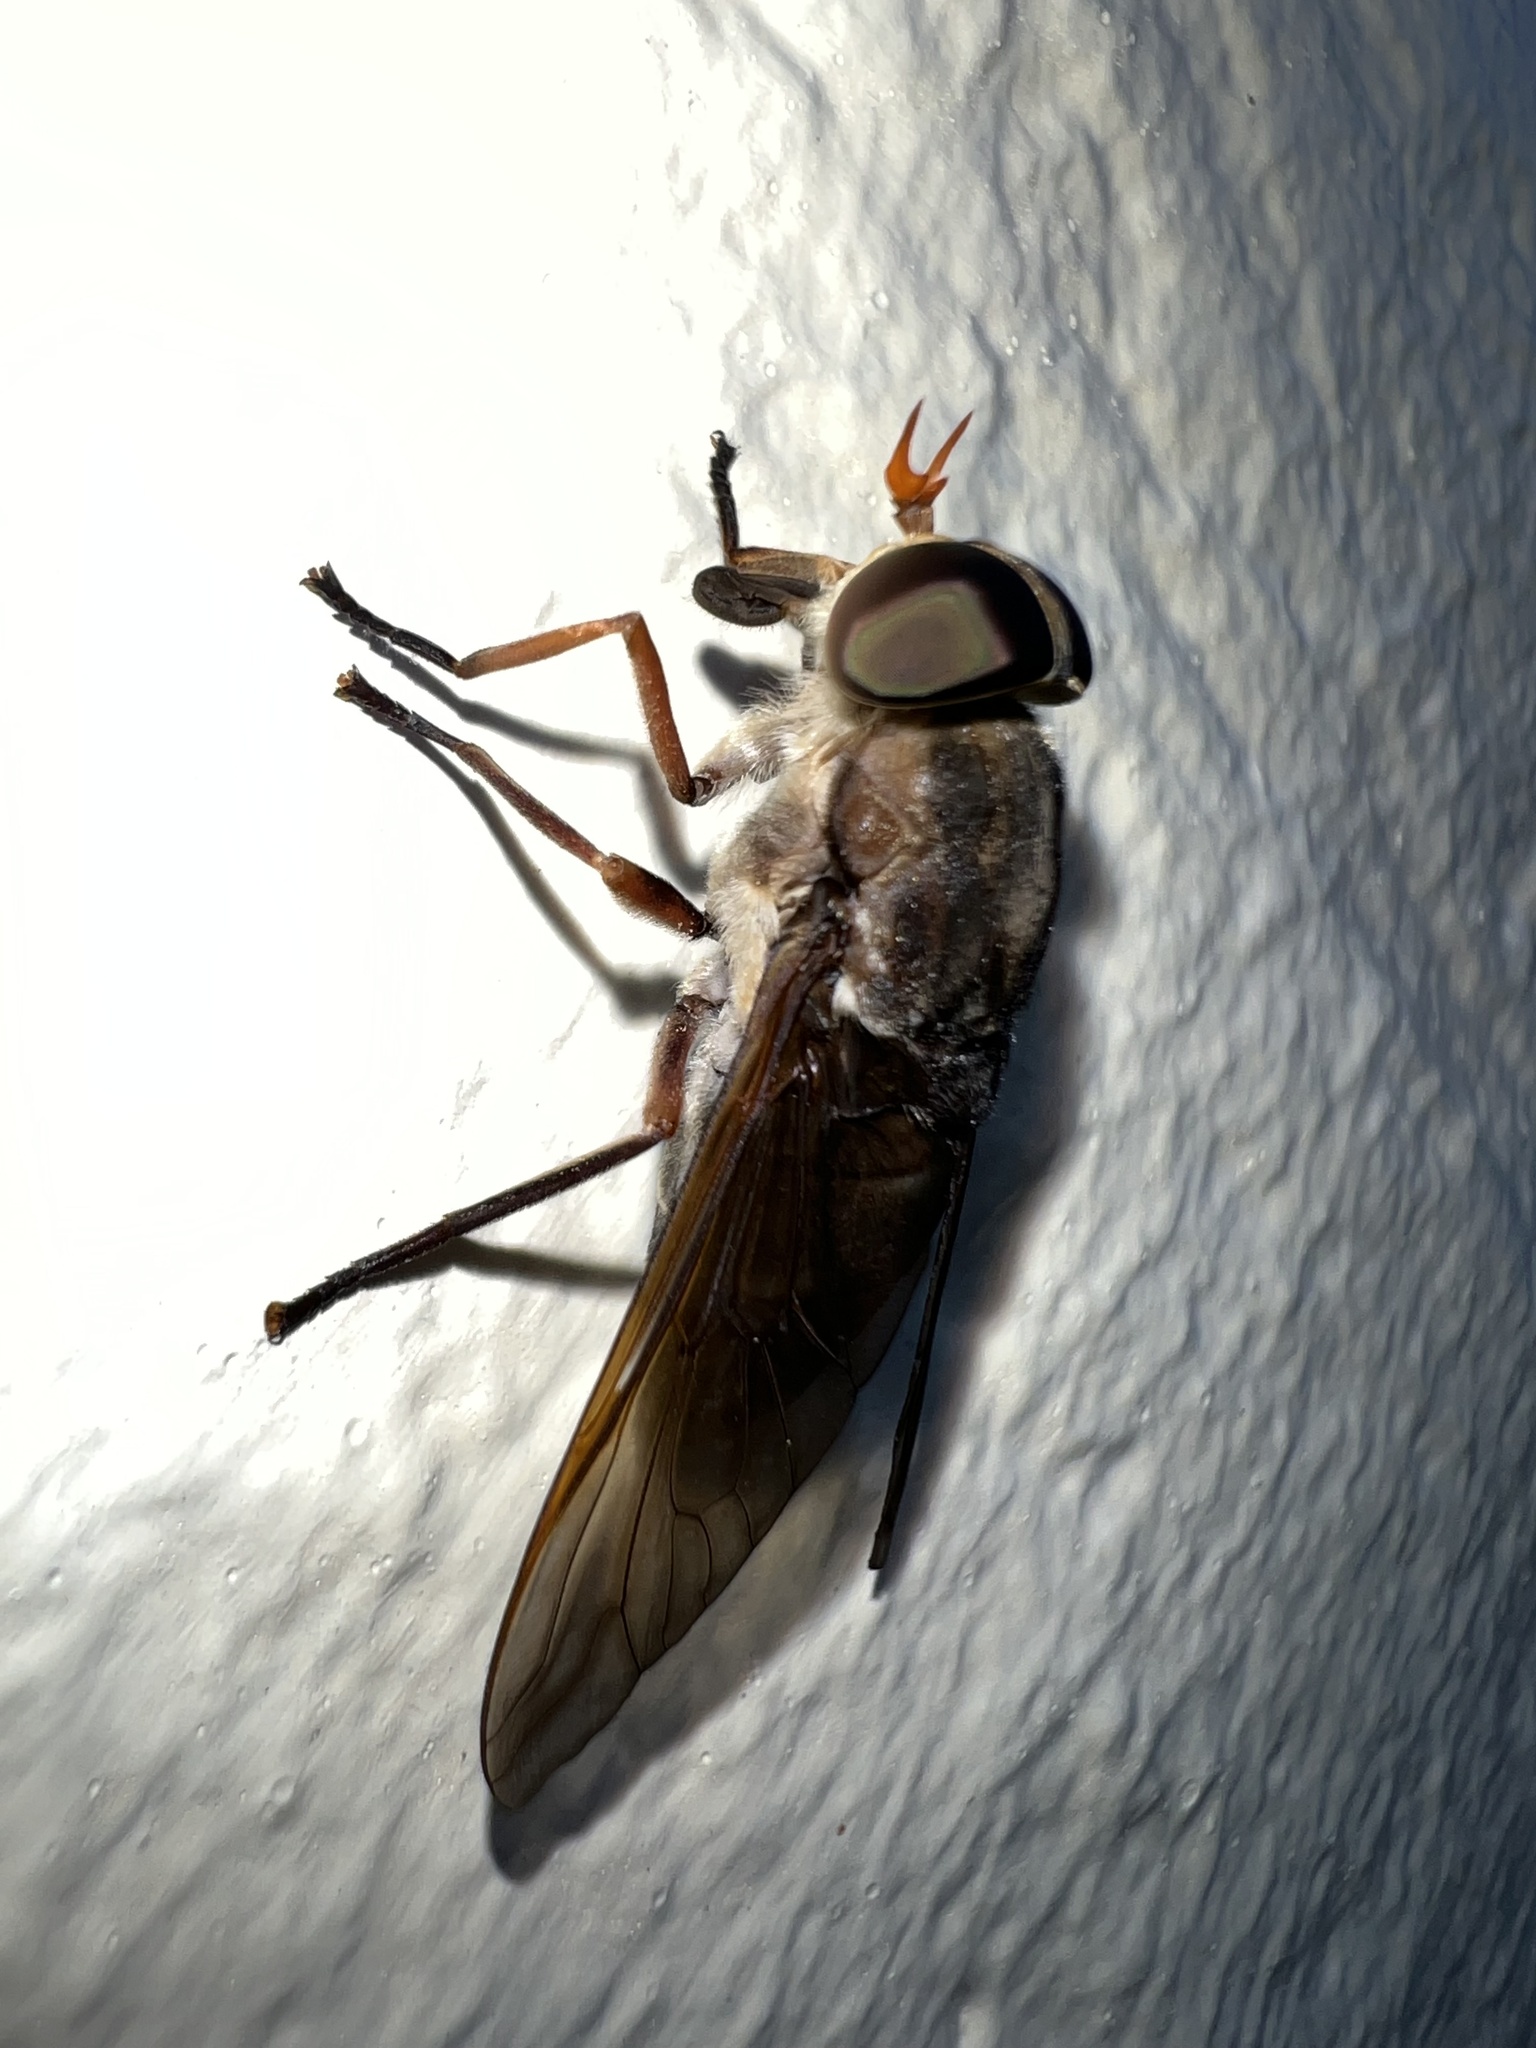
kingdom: Animalia
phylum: Arthropoda
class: Insecta
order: Diptera
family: Tabanidae
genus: Tabanus
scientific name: Tabanus calens
